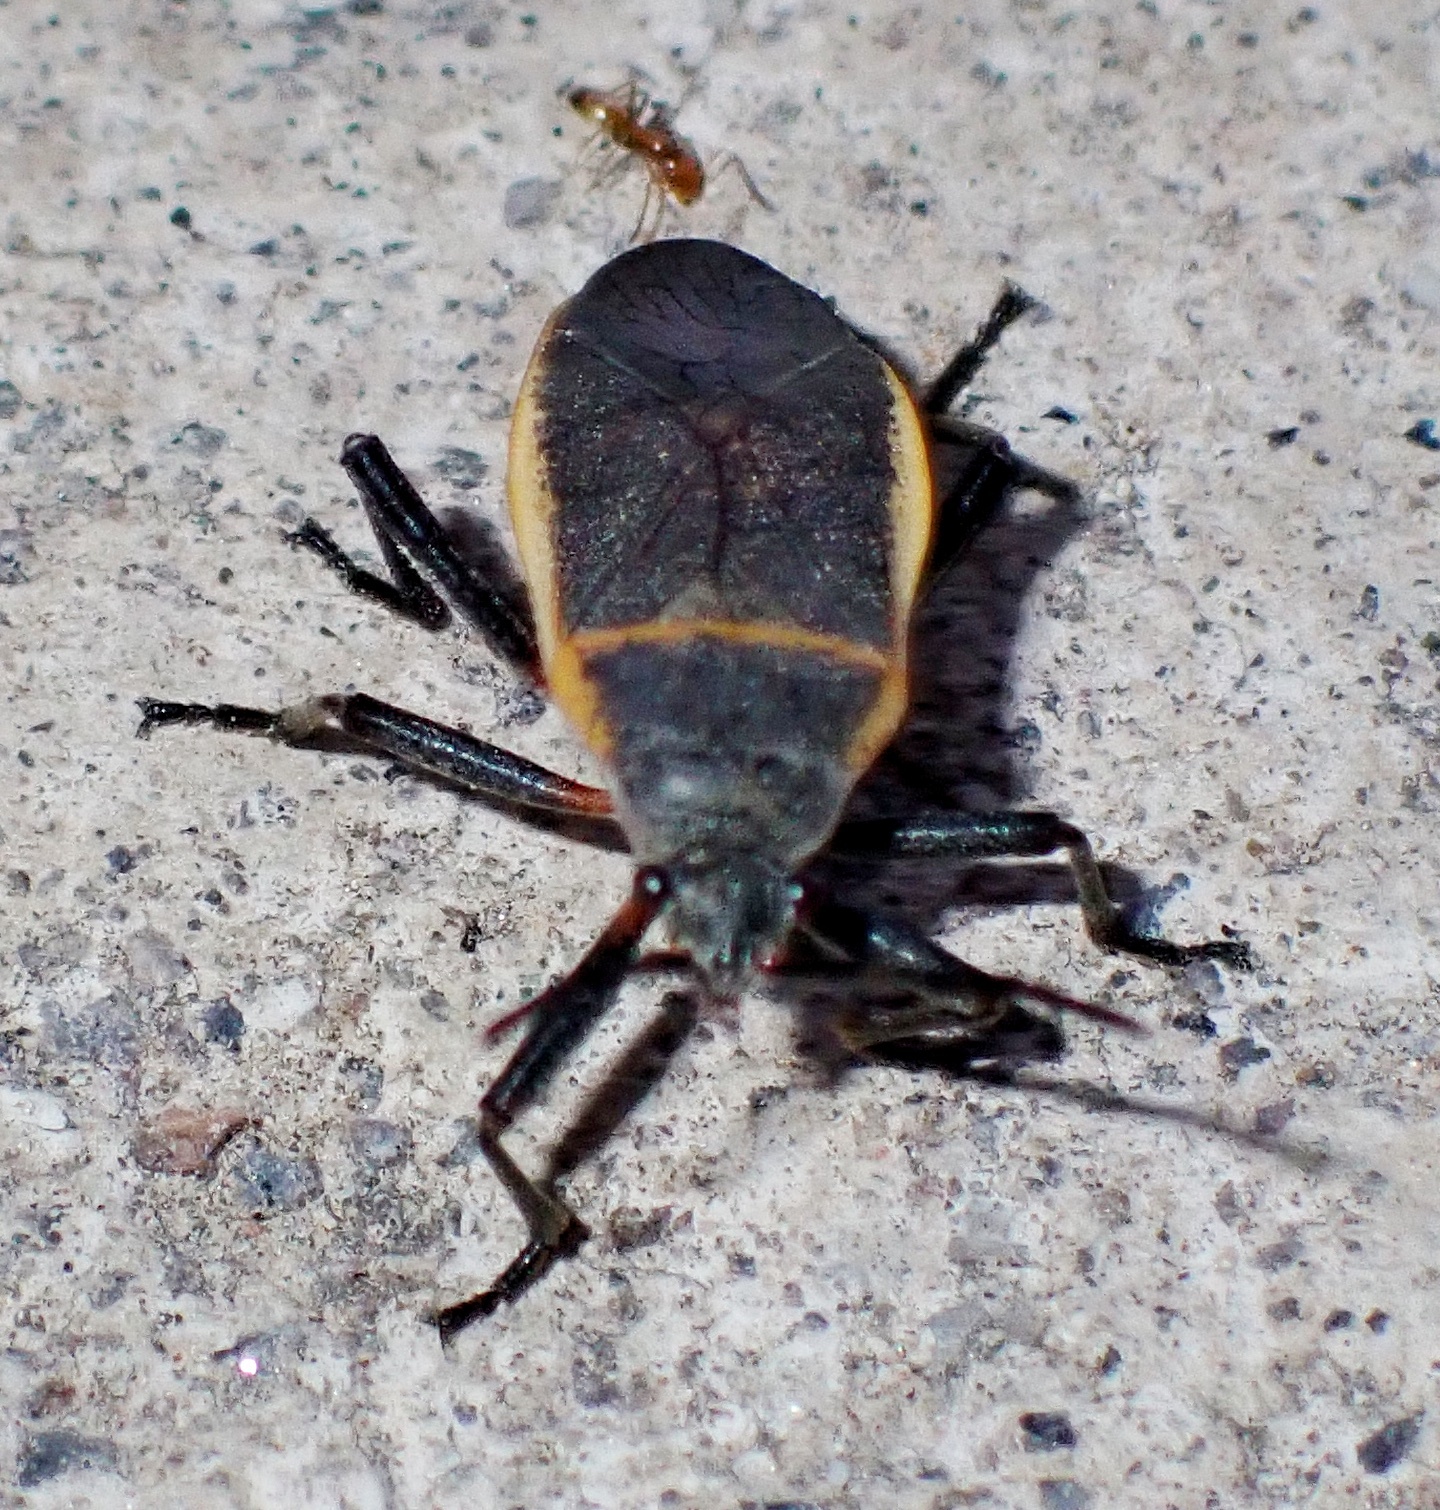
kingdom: Animalia
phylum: Arthropoda
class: Insecta
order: Hemiptera
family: Largidae
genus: Largus
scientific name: Largus californicus
